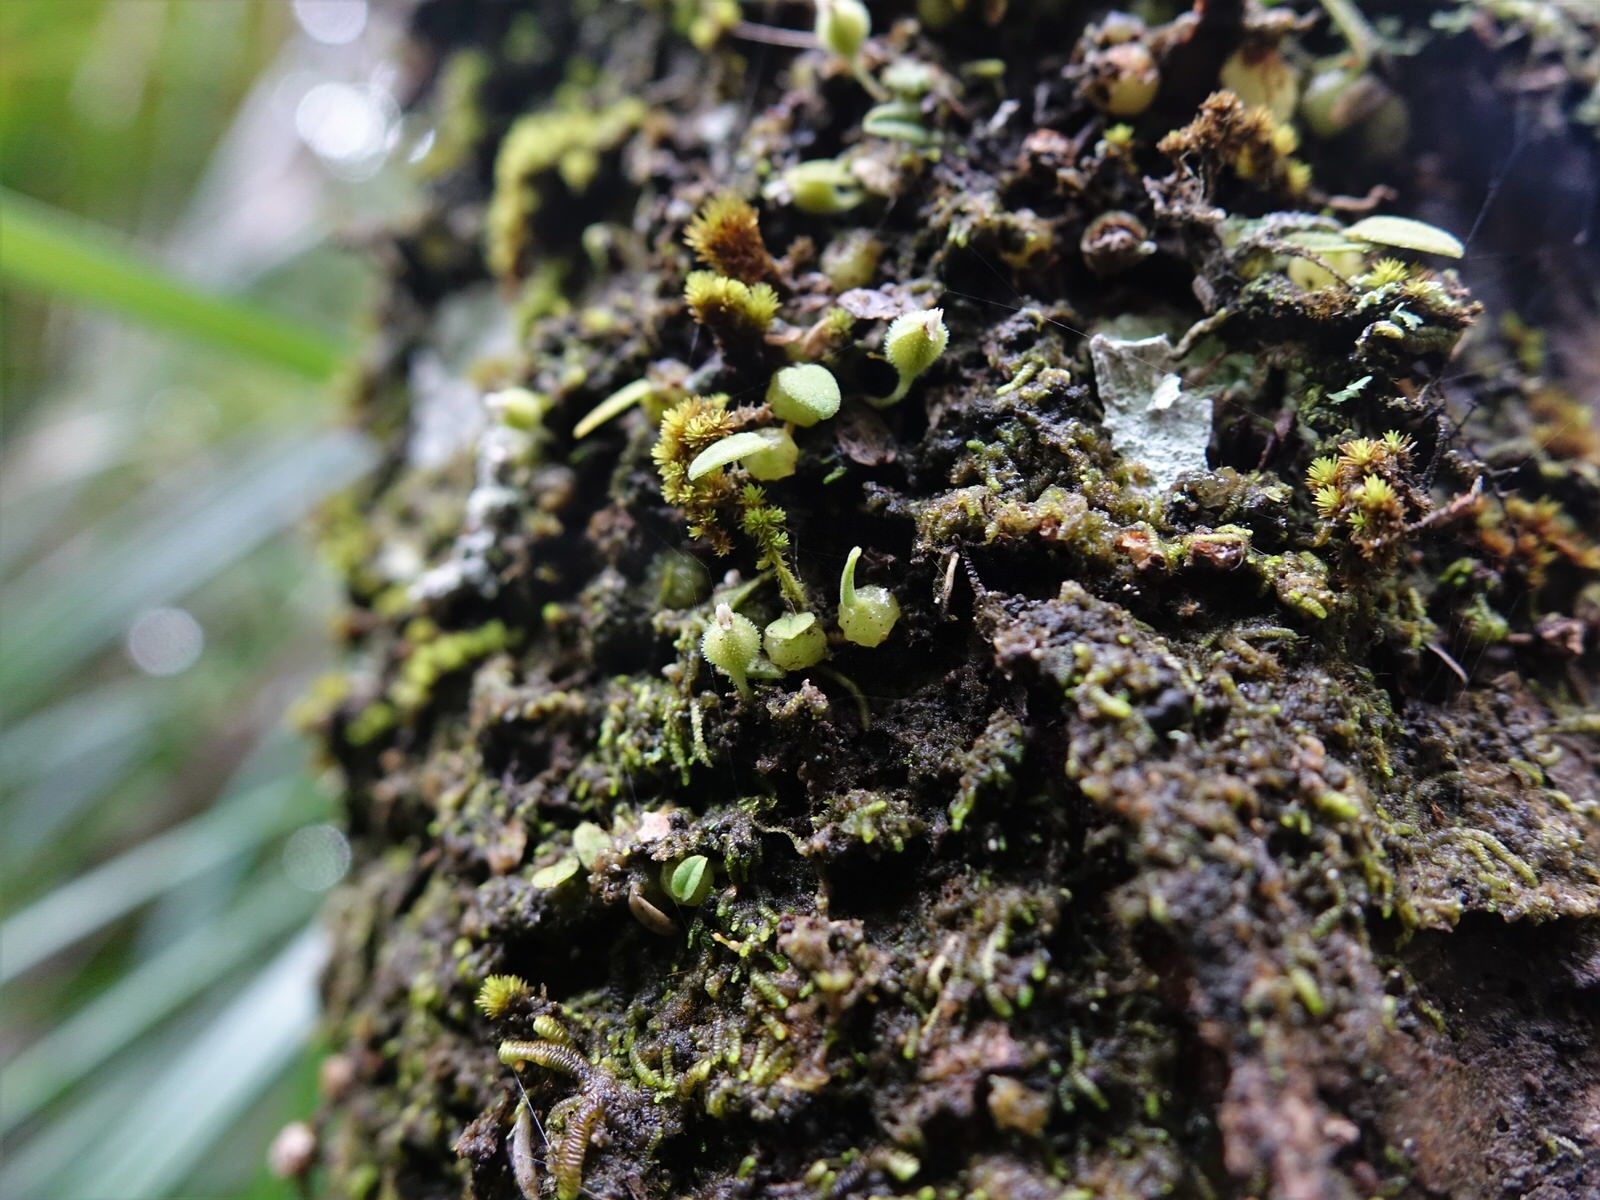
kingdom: Plantae
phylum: Tracheophyta
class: Liliopsida
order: Asparagales
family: Orchidaceae
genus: Bulbophyllum
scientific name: Bulbophyllum pygmaeum
